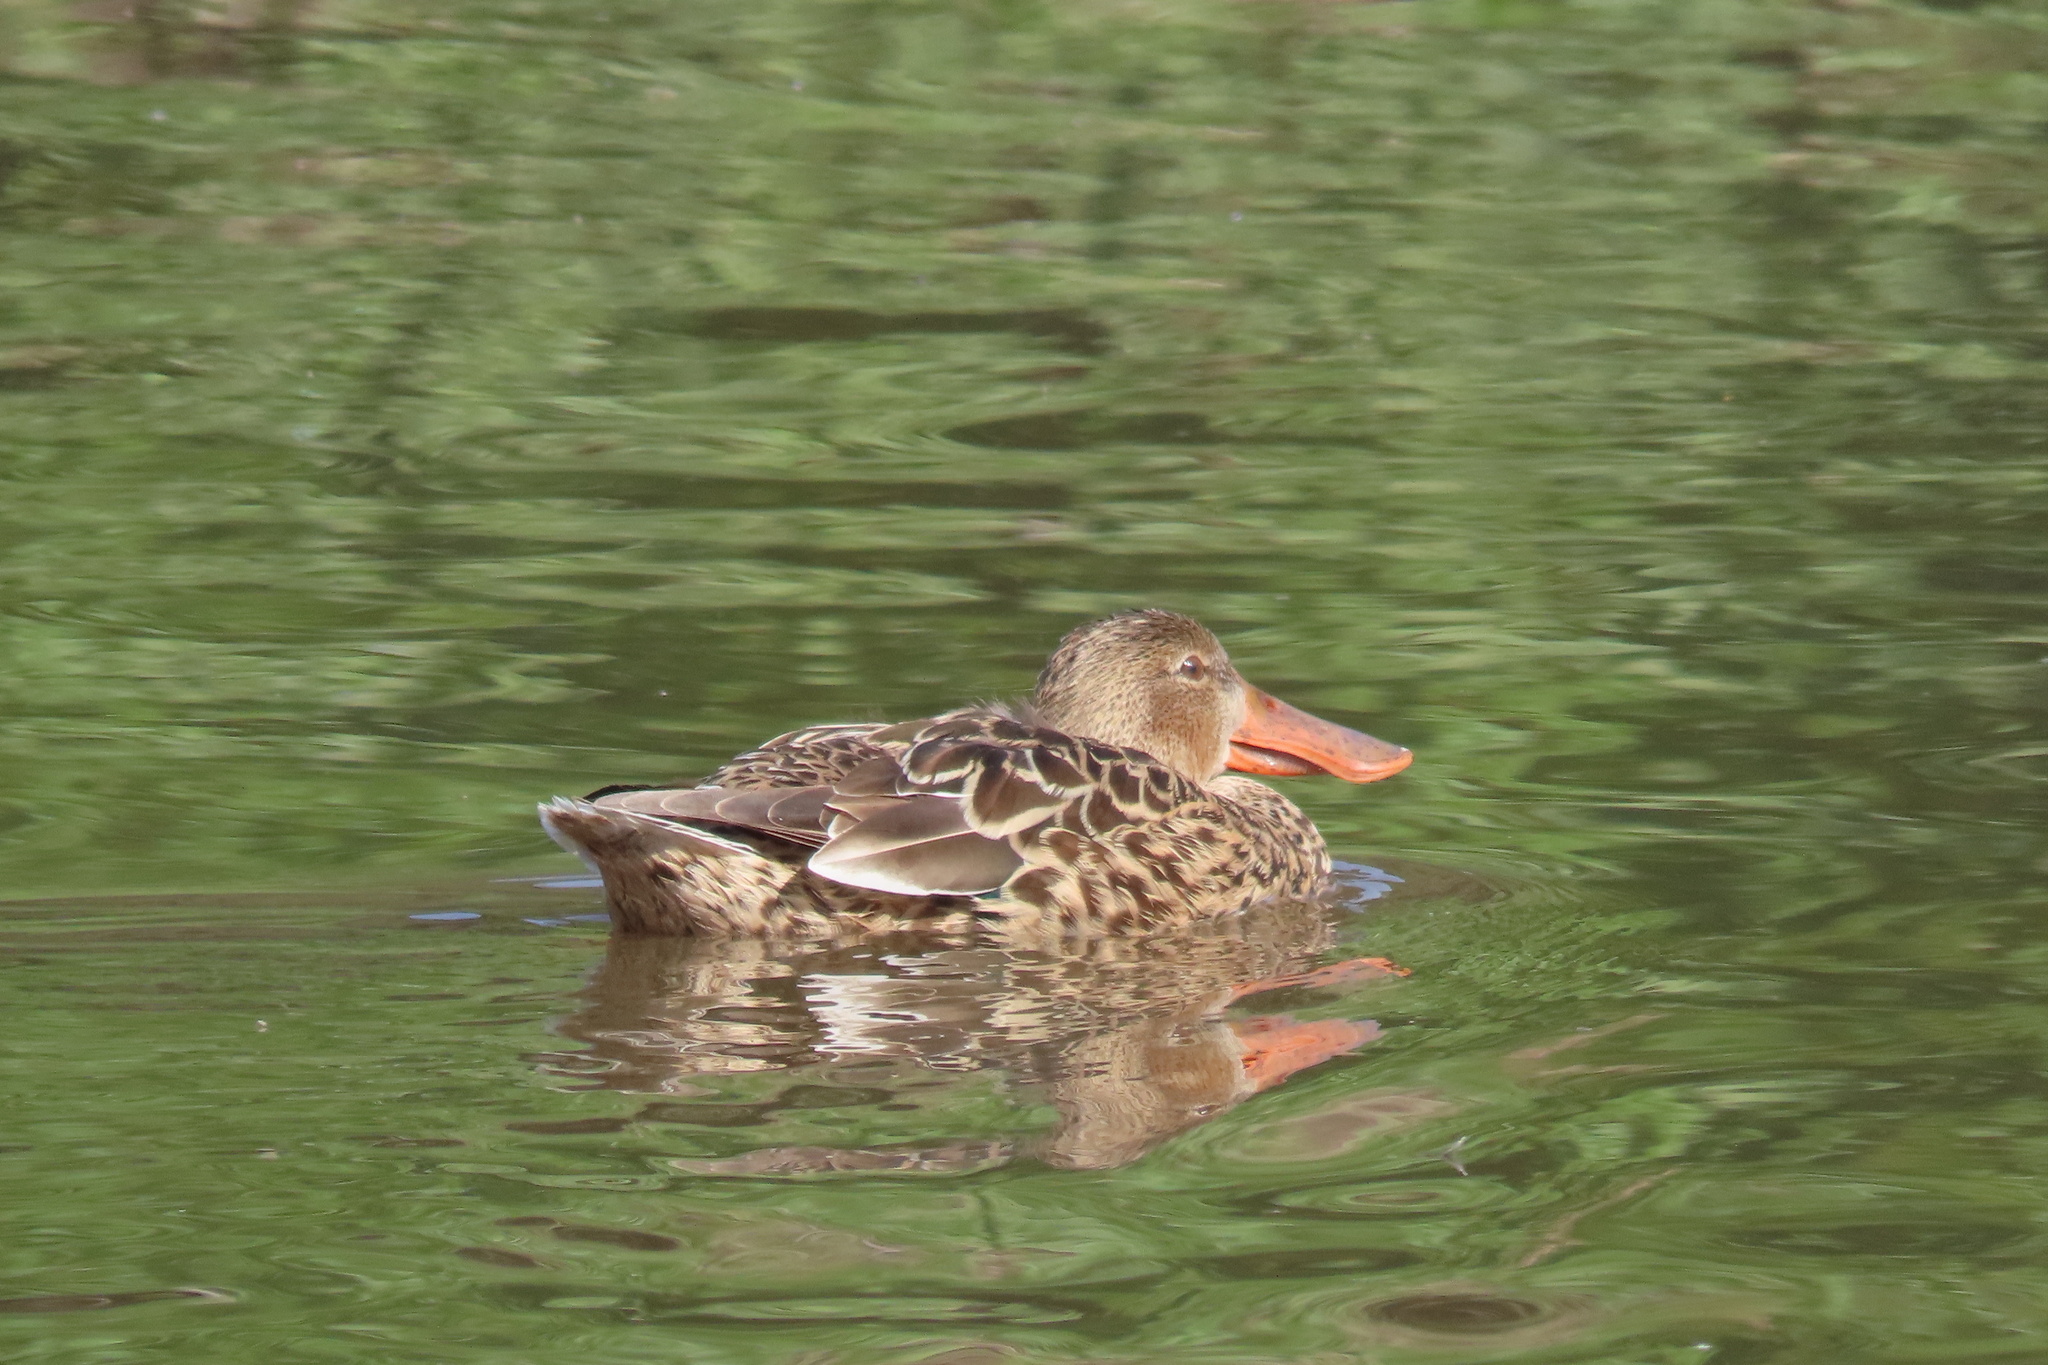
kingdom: Animalia
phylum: Chordata
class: Aves
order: Anseriformes
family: Anatidae
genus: Spatula
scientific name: Spatula clypeata
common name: Northern shoveler
